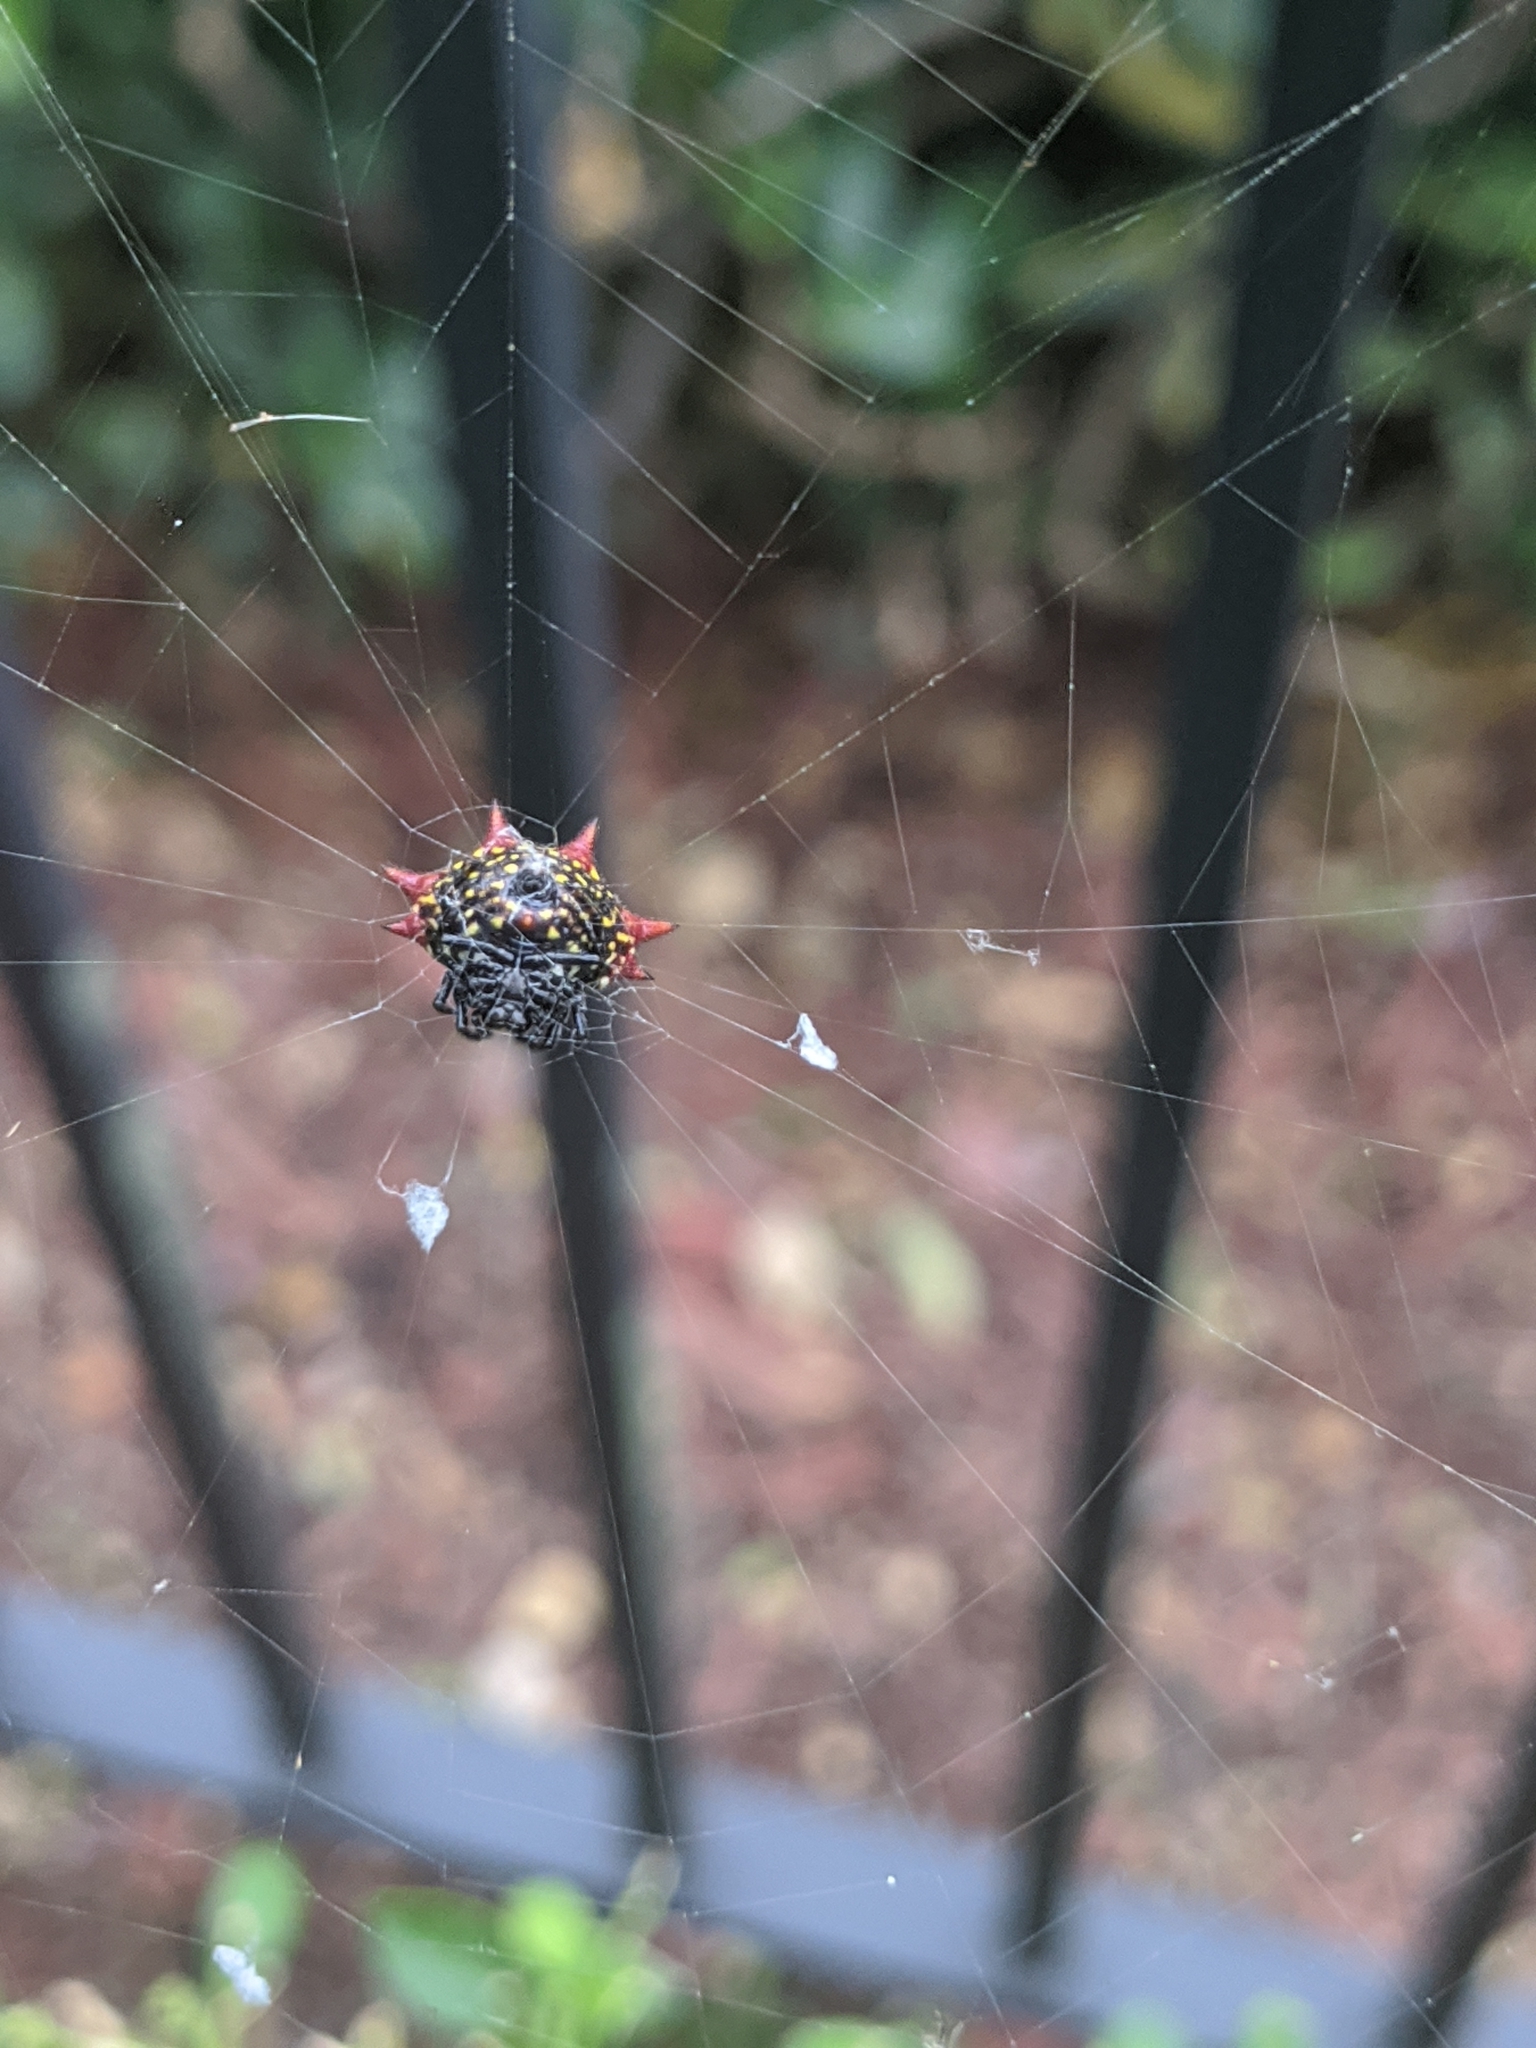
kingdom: Animalia
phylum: Arthropoda
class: Arachnida
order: Araneae
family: Araneidae
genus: Gasteracantha
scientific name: Gasteracantha cancriformis
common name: Orb weavers
